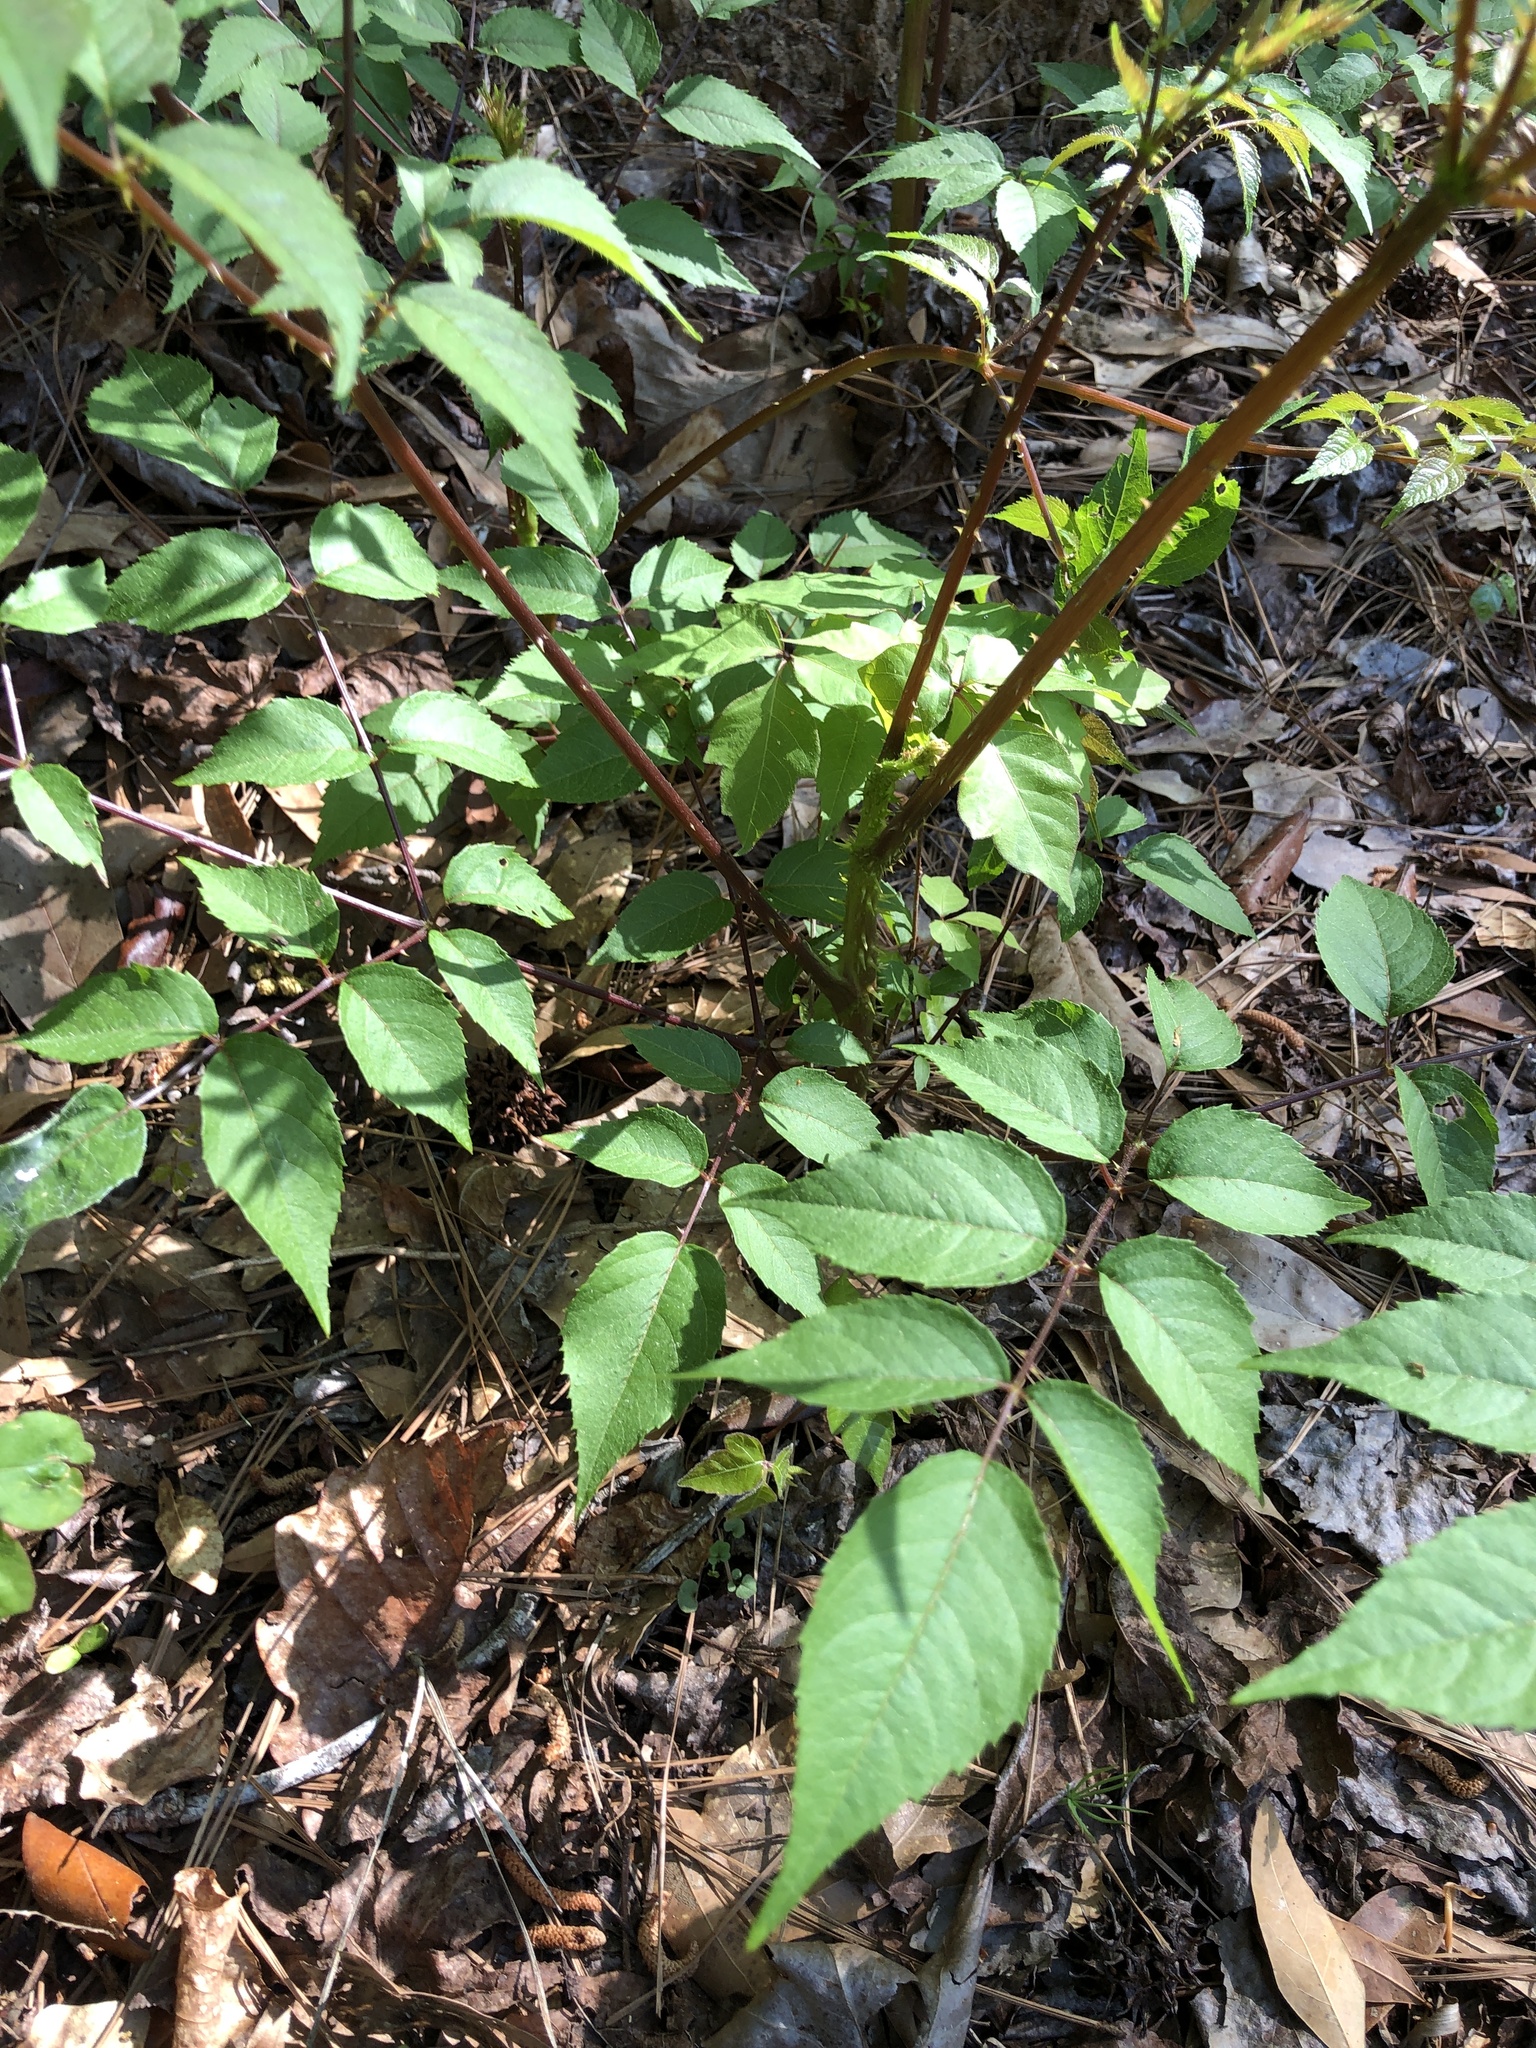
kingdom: Plantae
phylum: Tracheophyta
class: Magnoliopsida
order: Apiales
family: Araliaceae
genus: Aralia
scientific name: Aralia spinosa
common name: Hercules'-club
